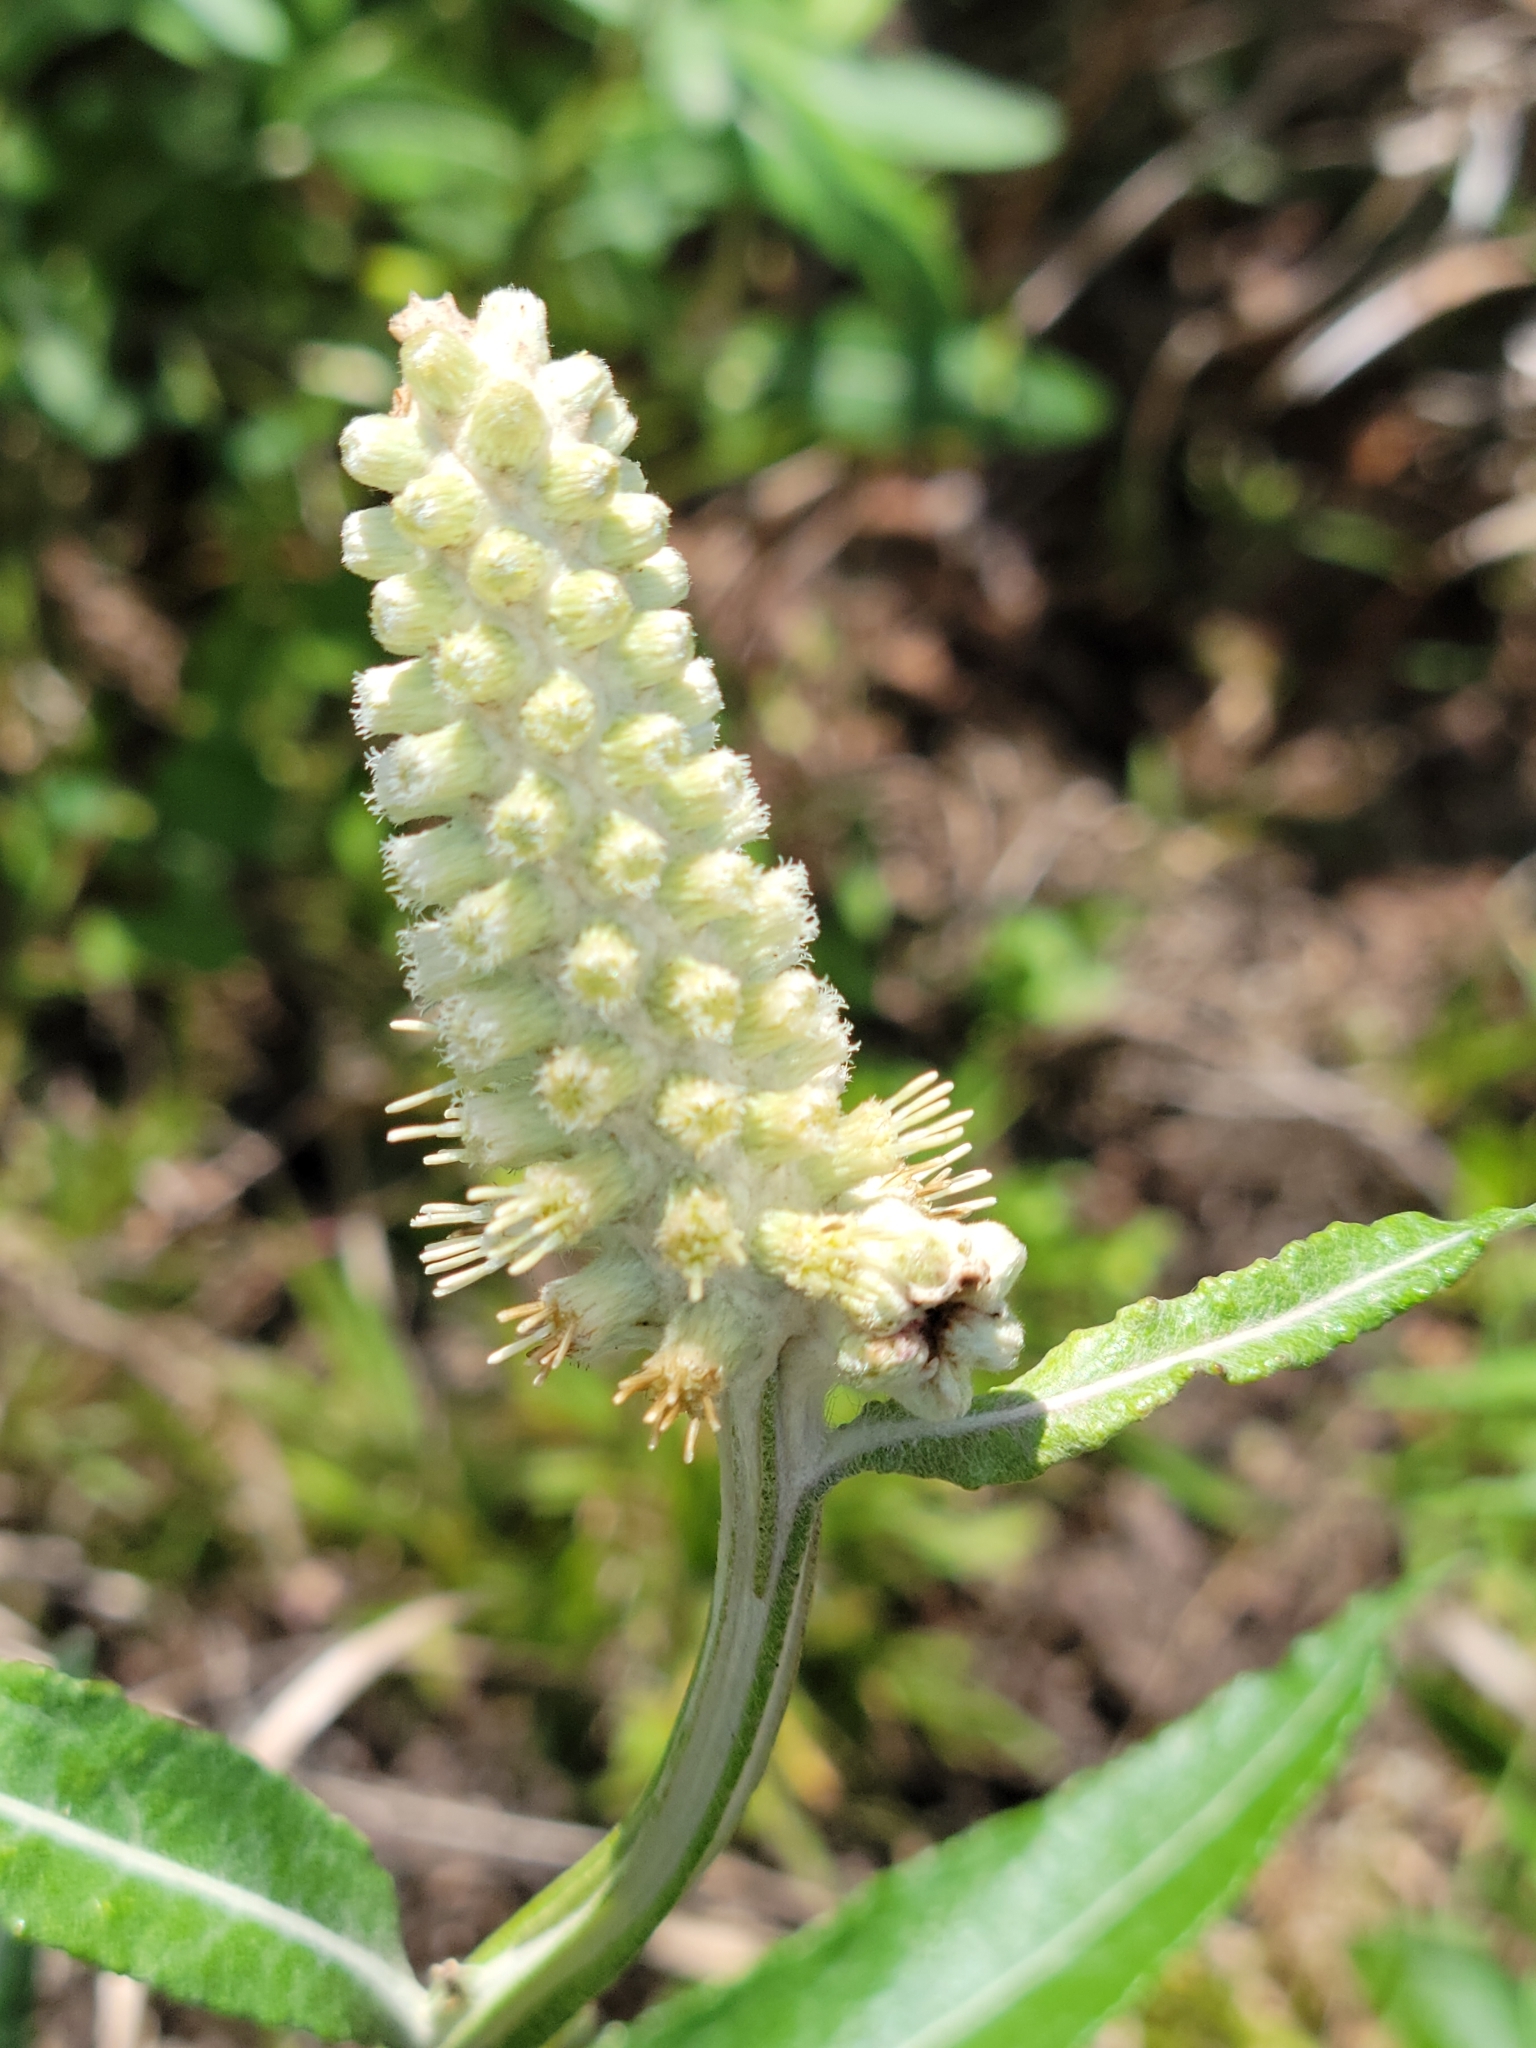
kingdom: Plantae
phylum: Tracheophyta
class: Magnoliopsida
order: Asterales
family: Asteraceae
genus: Pterocaulon
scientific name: Pterocaulon pycnostachyum
